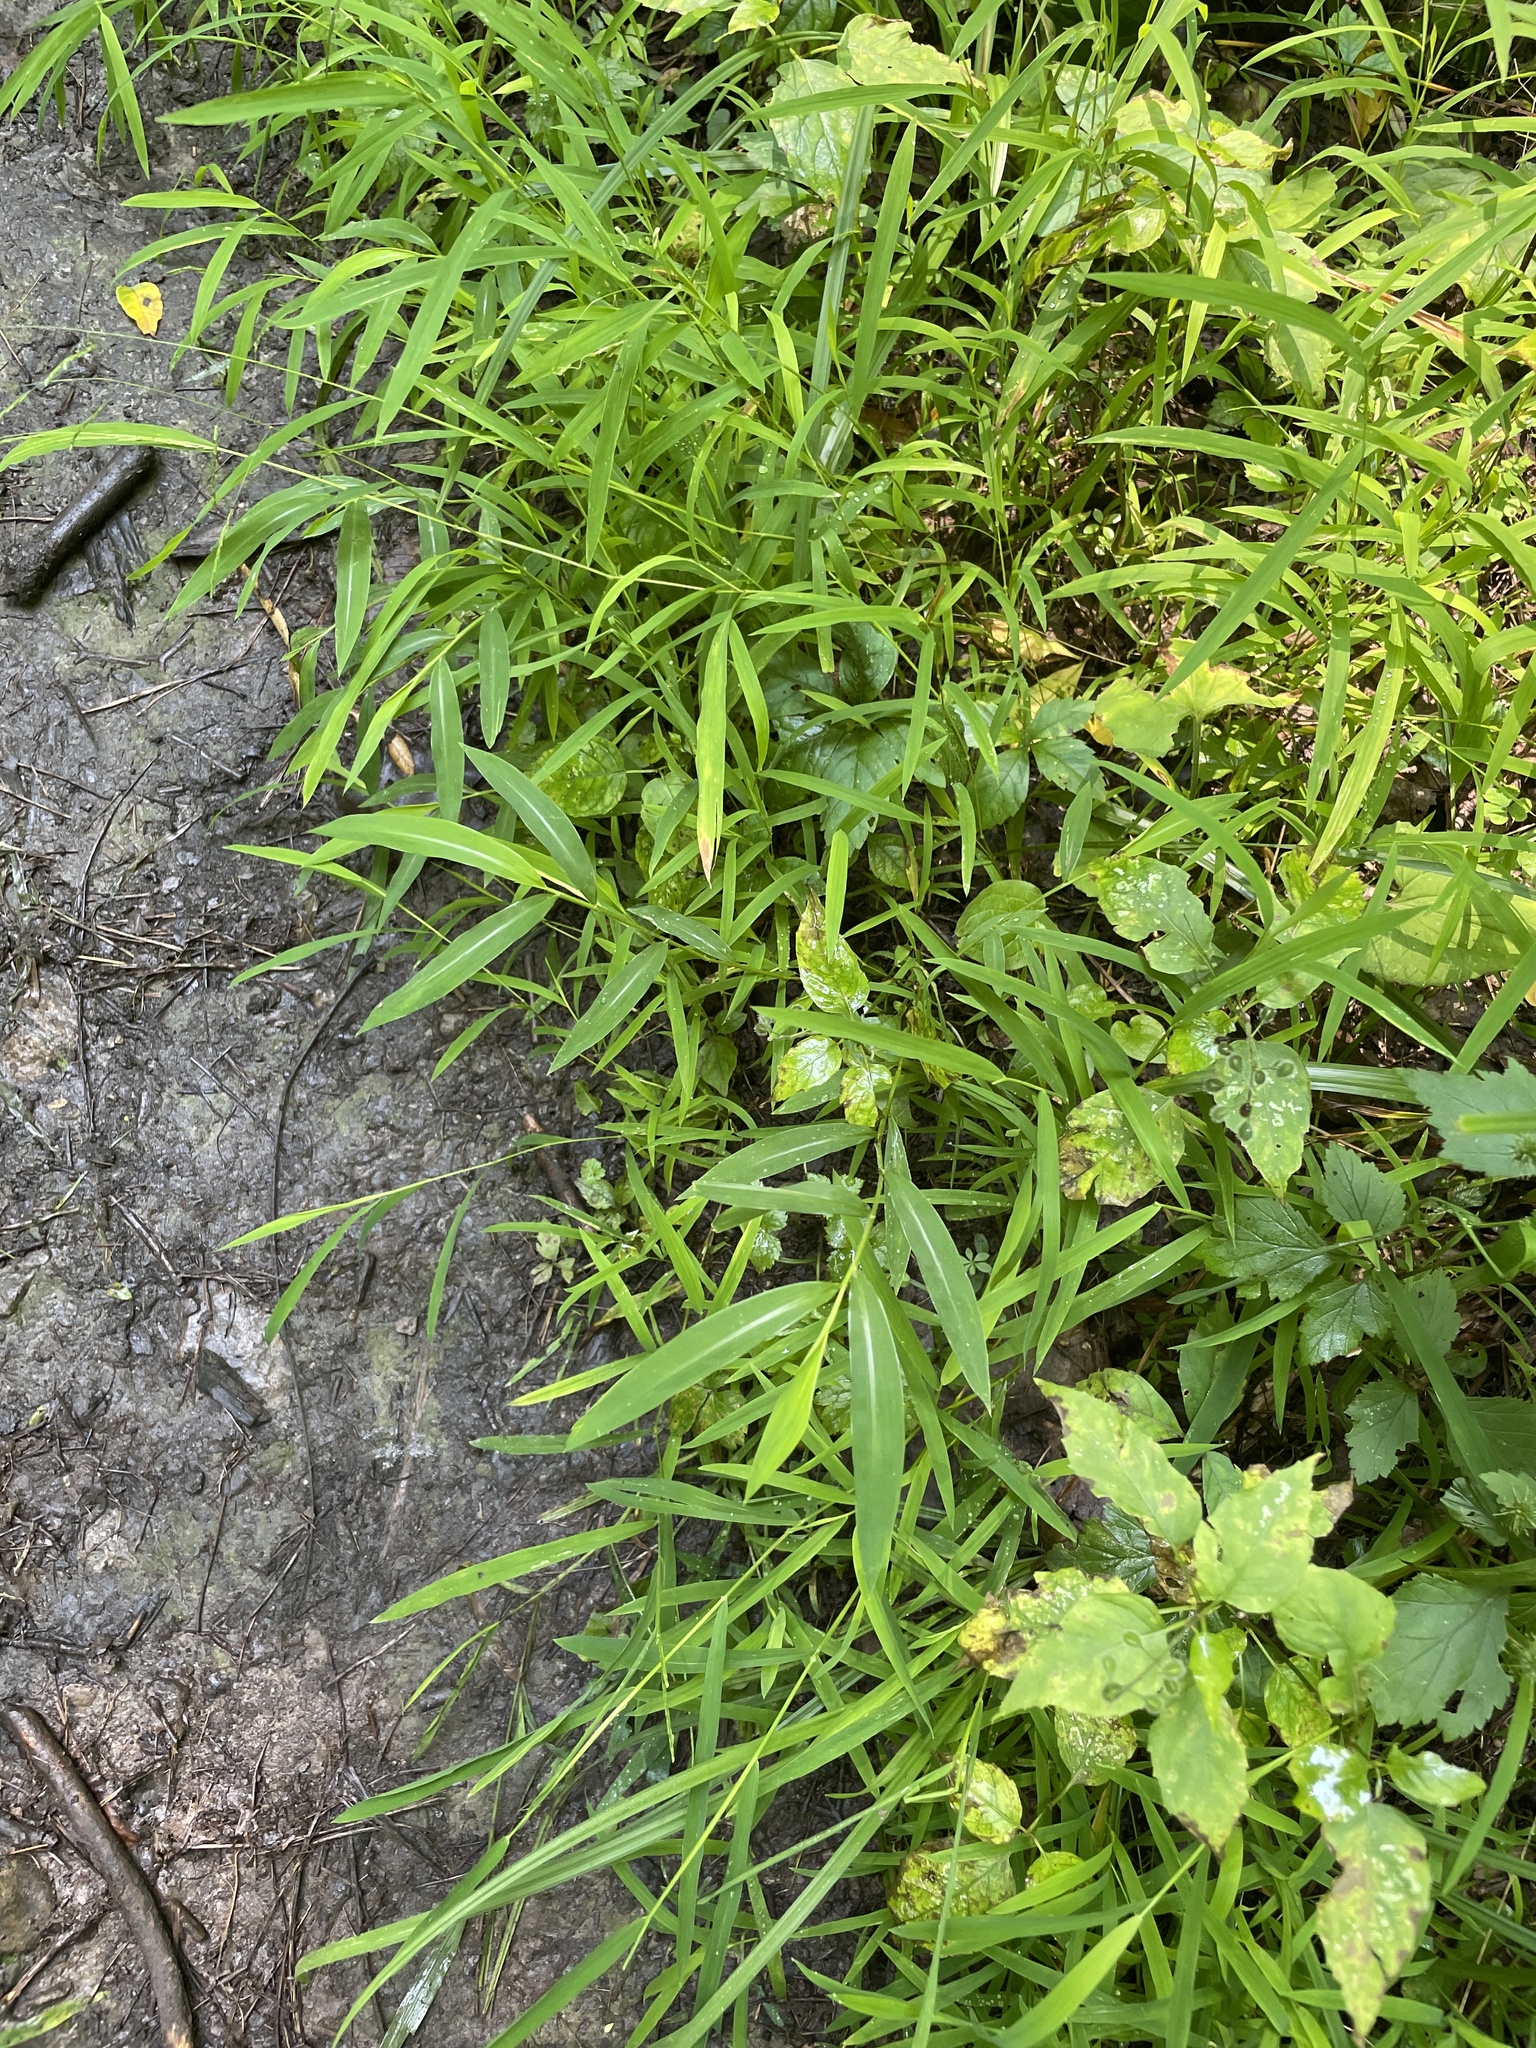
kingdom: Plantae
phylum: Tracheophyta
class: Liliopsida
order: Poales
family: Poaceae
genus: Microstegium
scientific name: Microstegium vimineum
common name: Japanese stiltgrass
